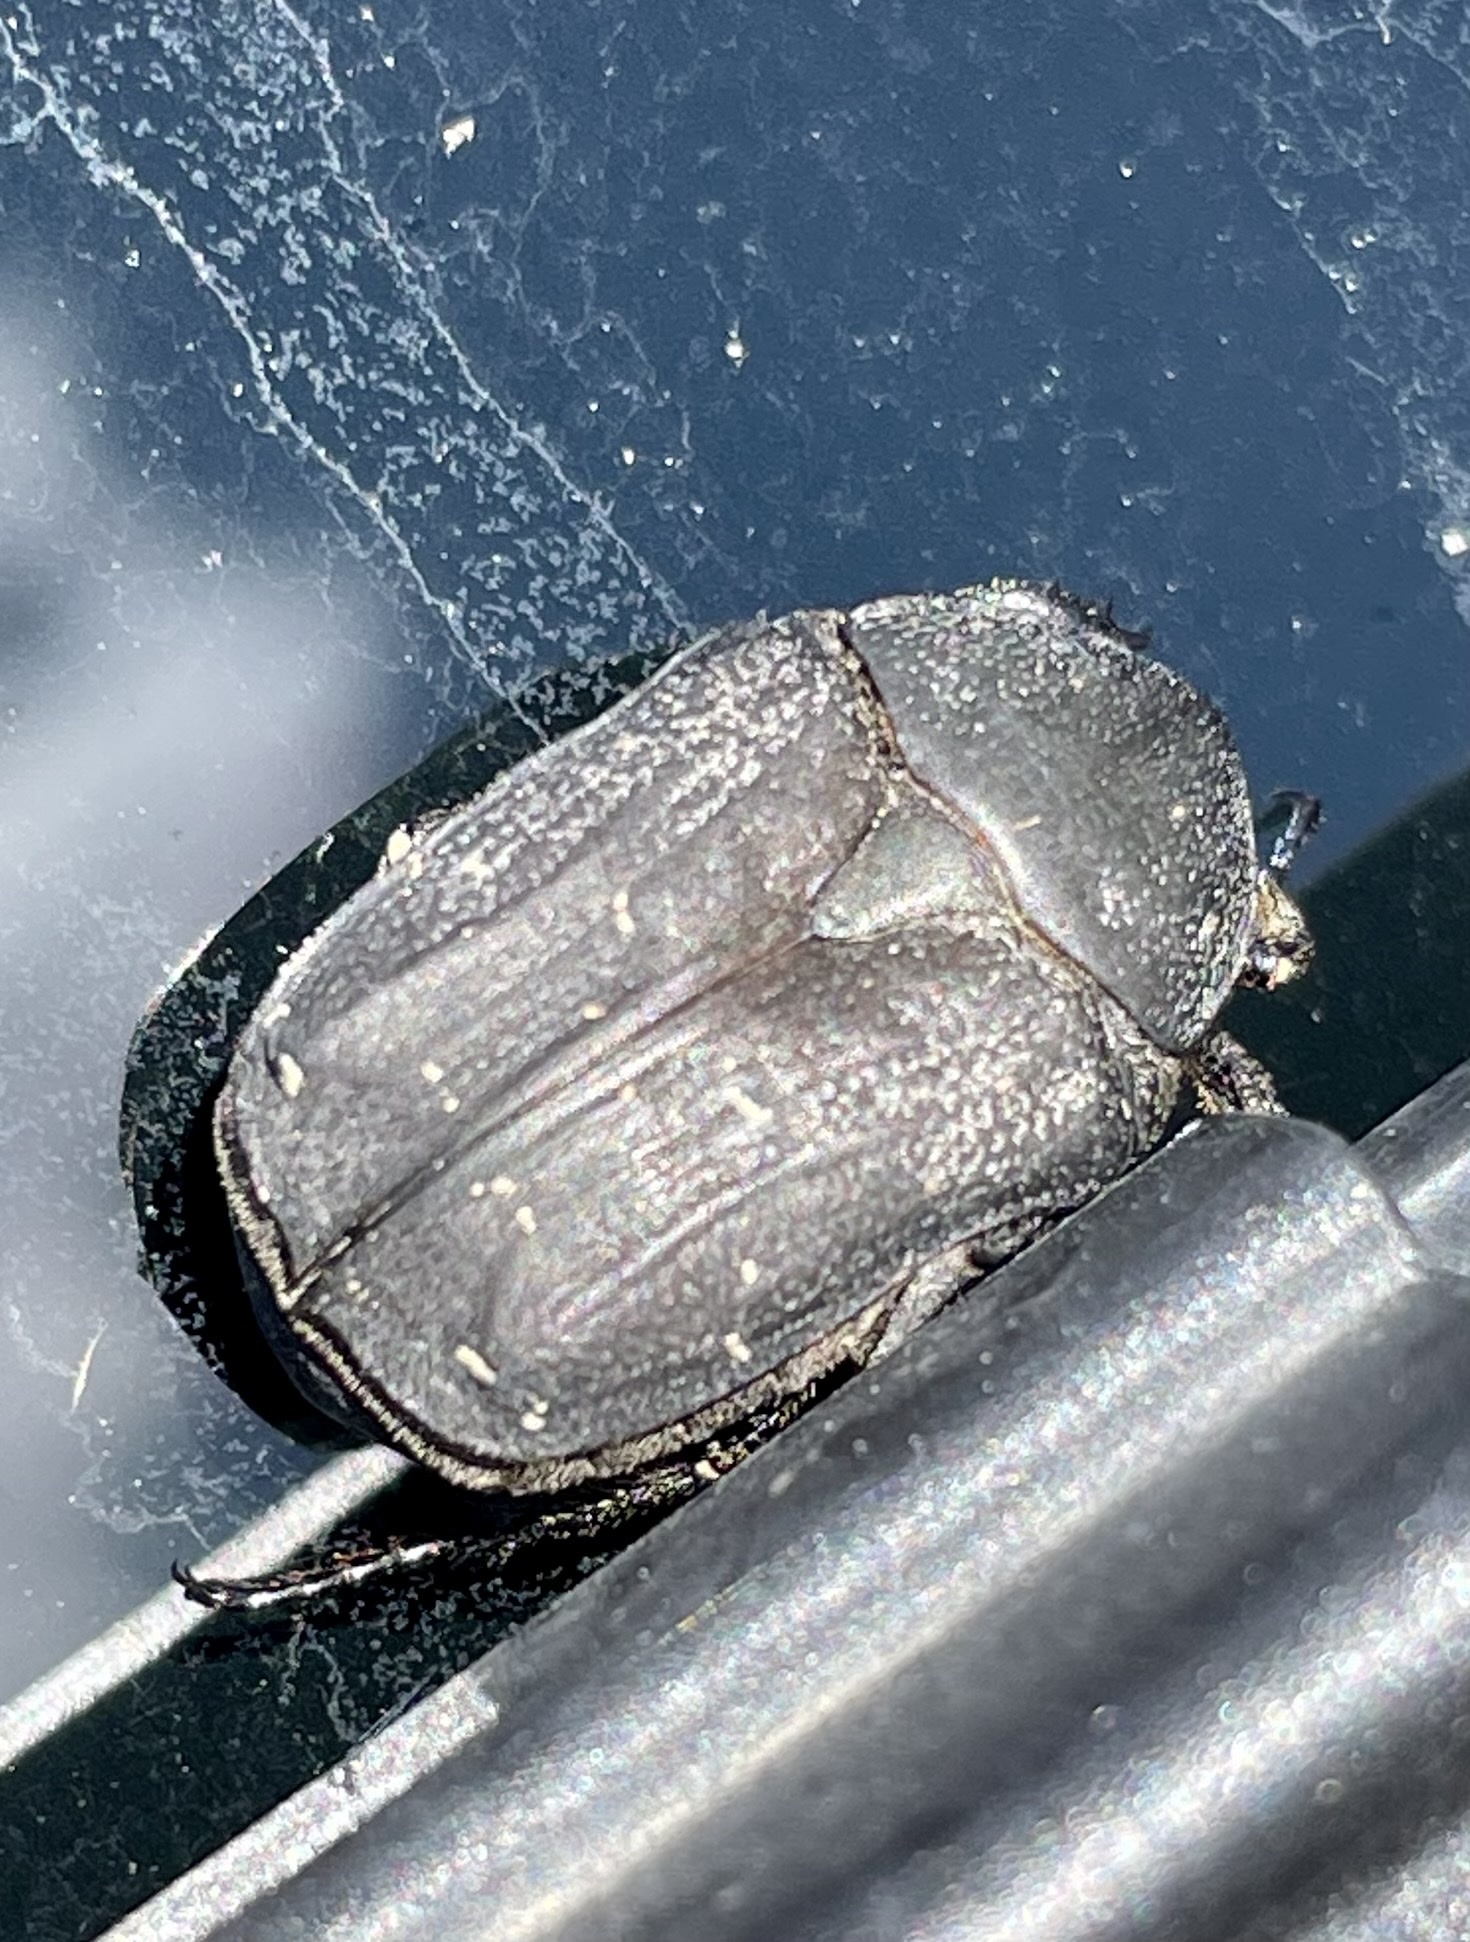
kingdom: Animalia
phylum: Arthropoda
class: Insecta
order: Coleoptera
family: Scarabaeidae
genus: Protaetia
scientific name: Protaetia morio
